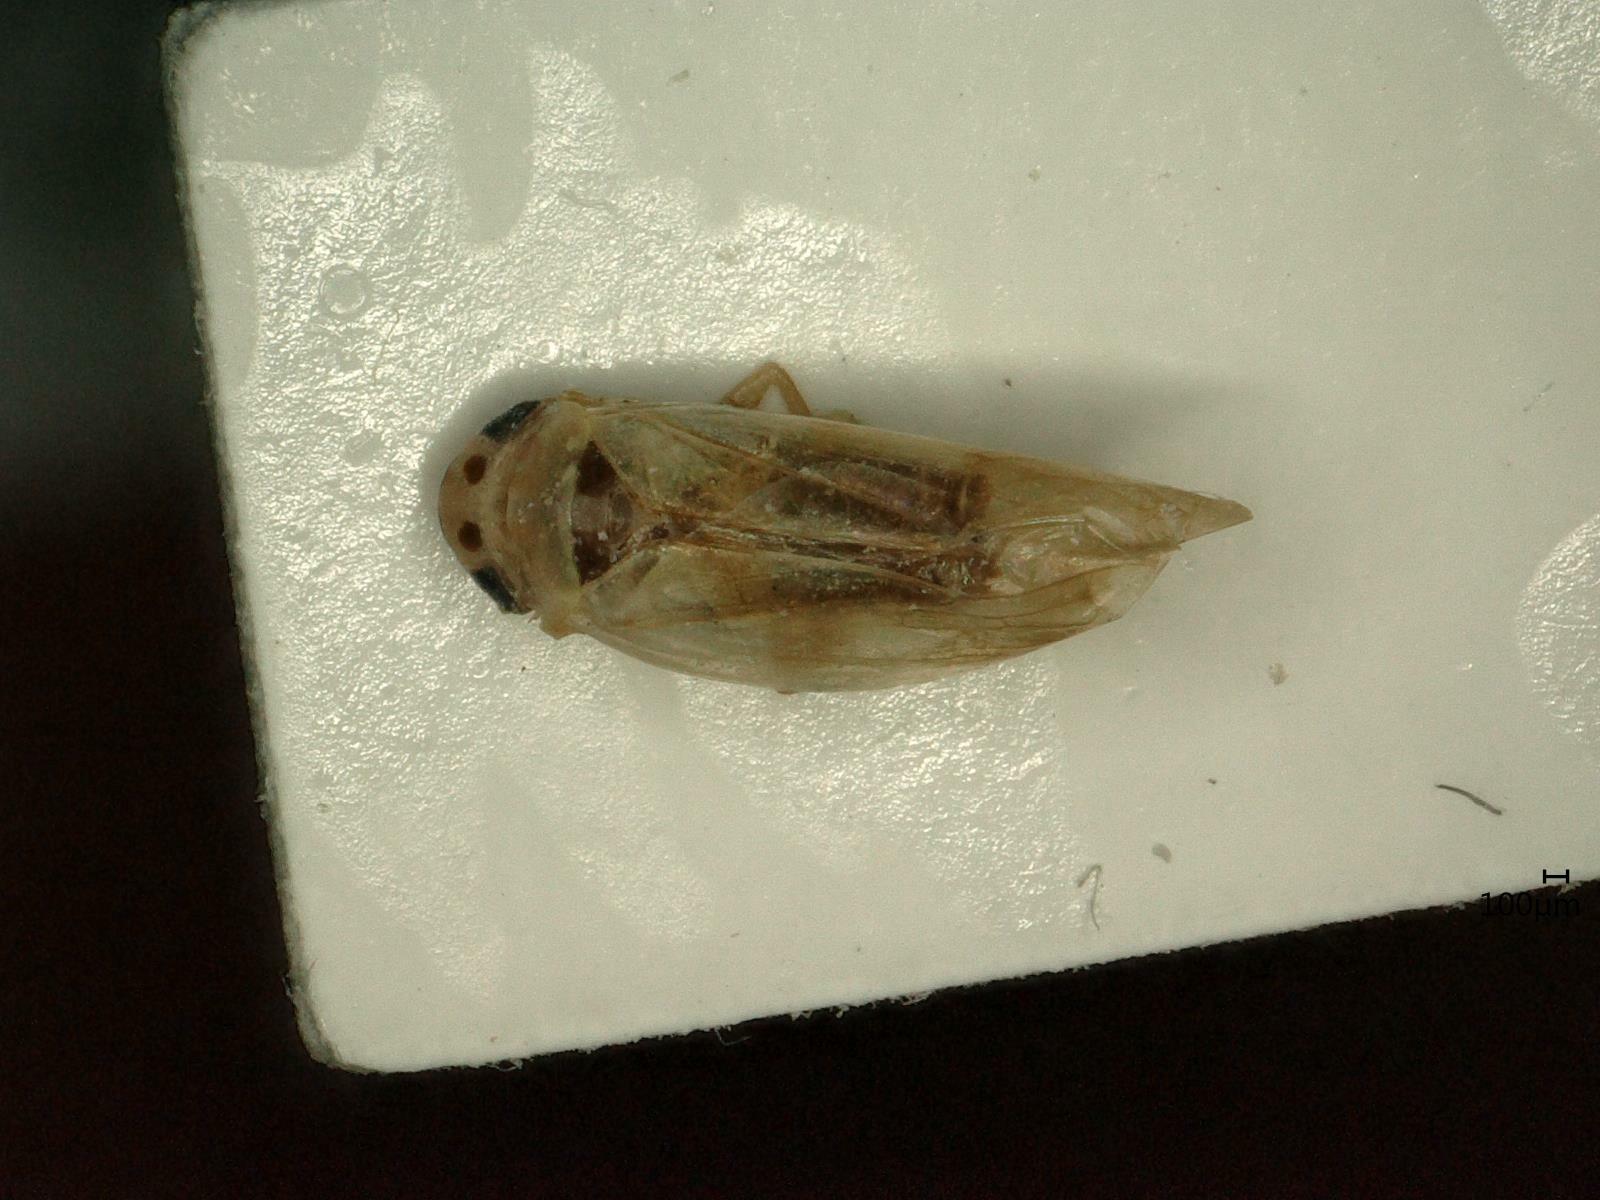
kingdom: Animalia
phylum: Arthropoda
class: Insecta
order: Hemiptera
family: Cicadellidae
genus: Macrosteles
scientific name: Macrosteles variatus
